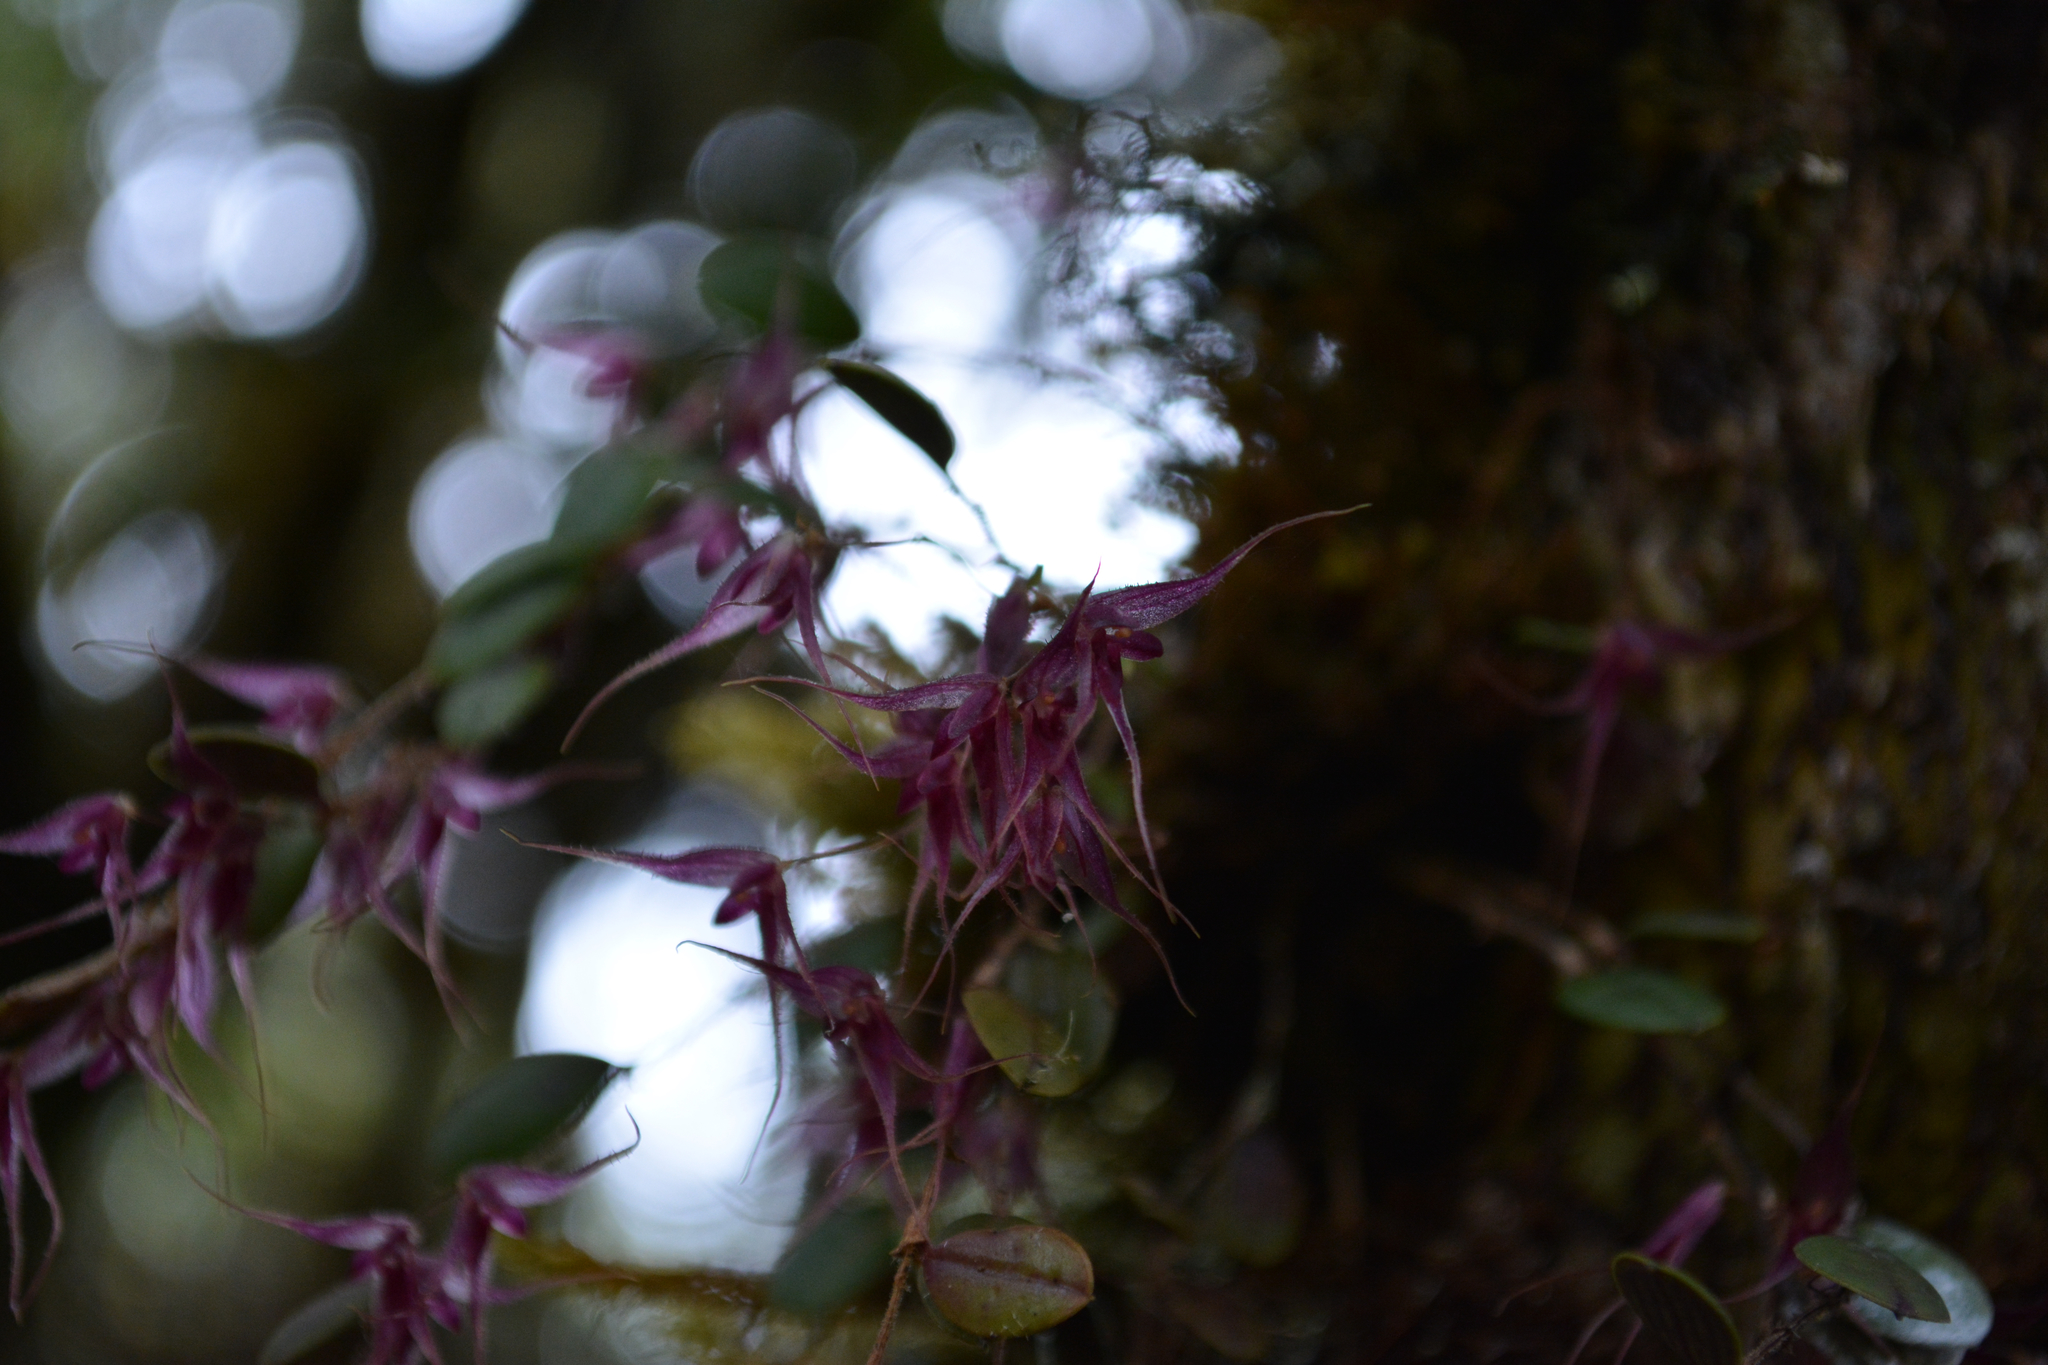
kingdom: Plantae
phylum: Tracheophyta
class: Liliopsida
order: Asparagales
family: Orchidaceae
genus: Gravendeelia
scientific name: Gravendeelia chamaelepanthes
